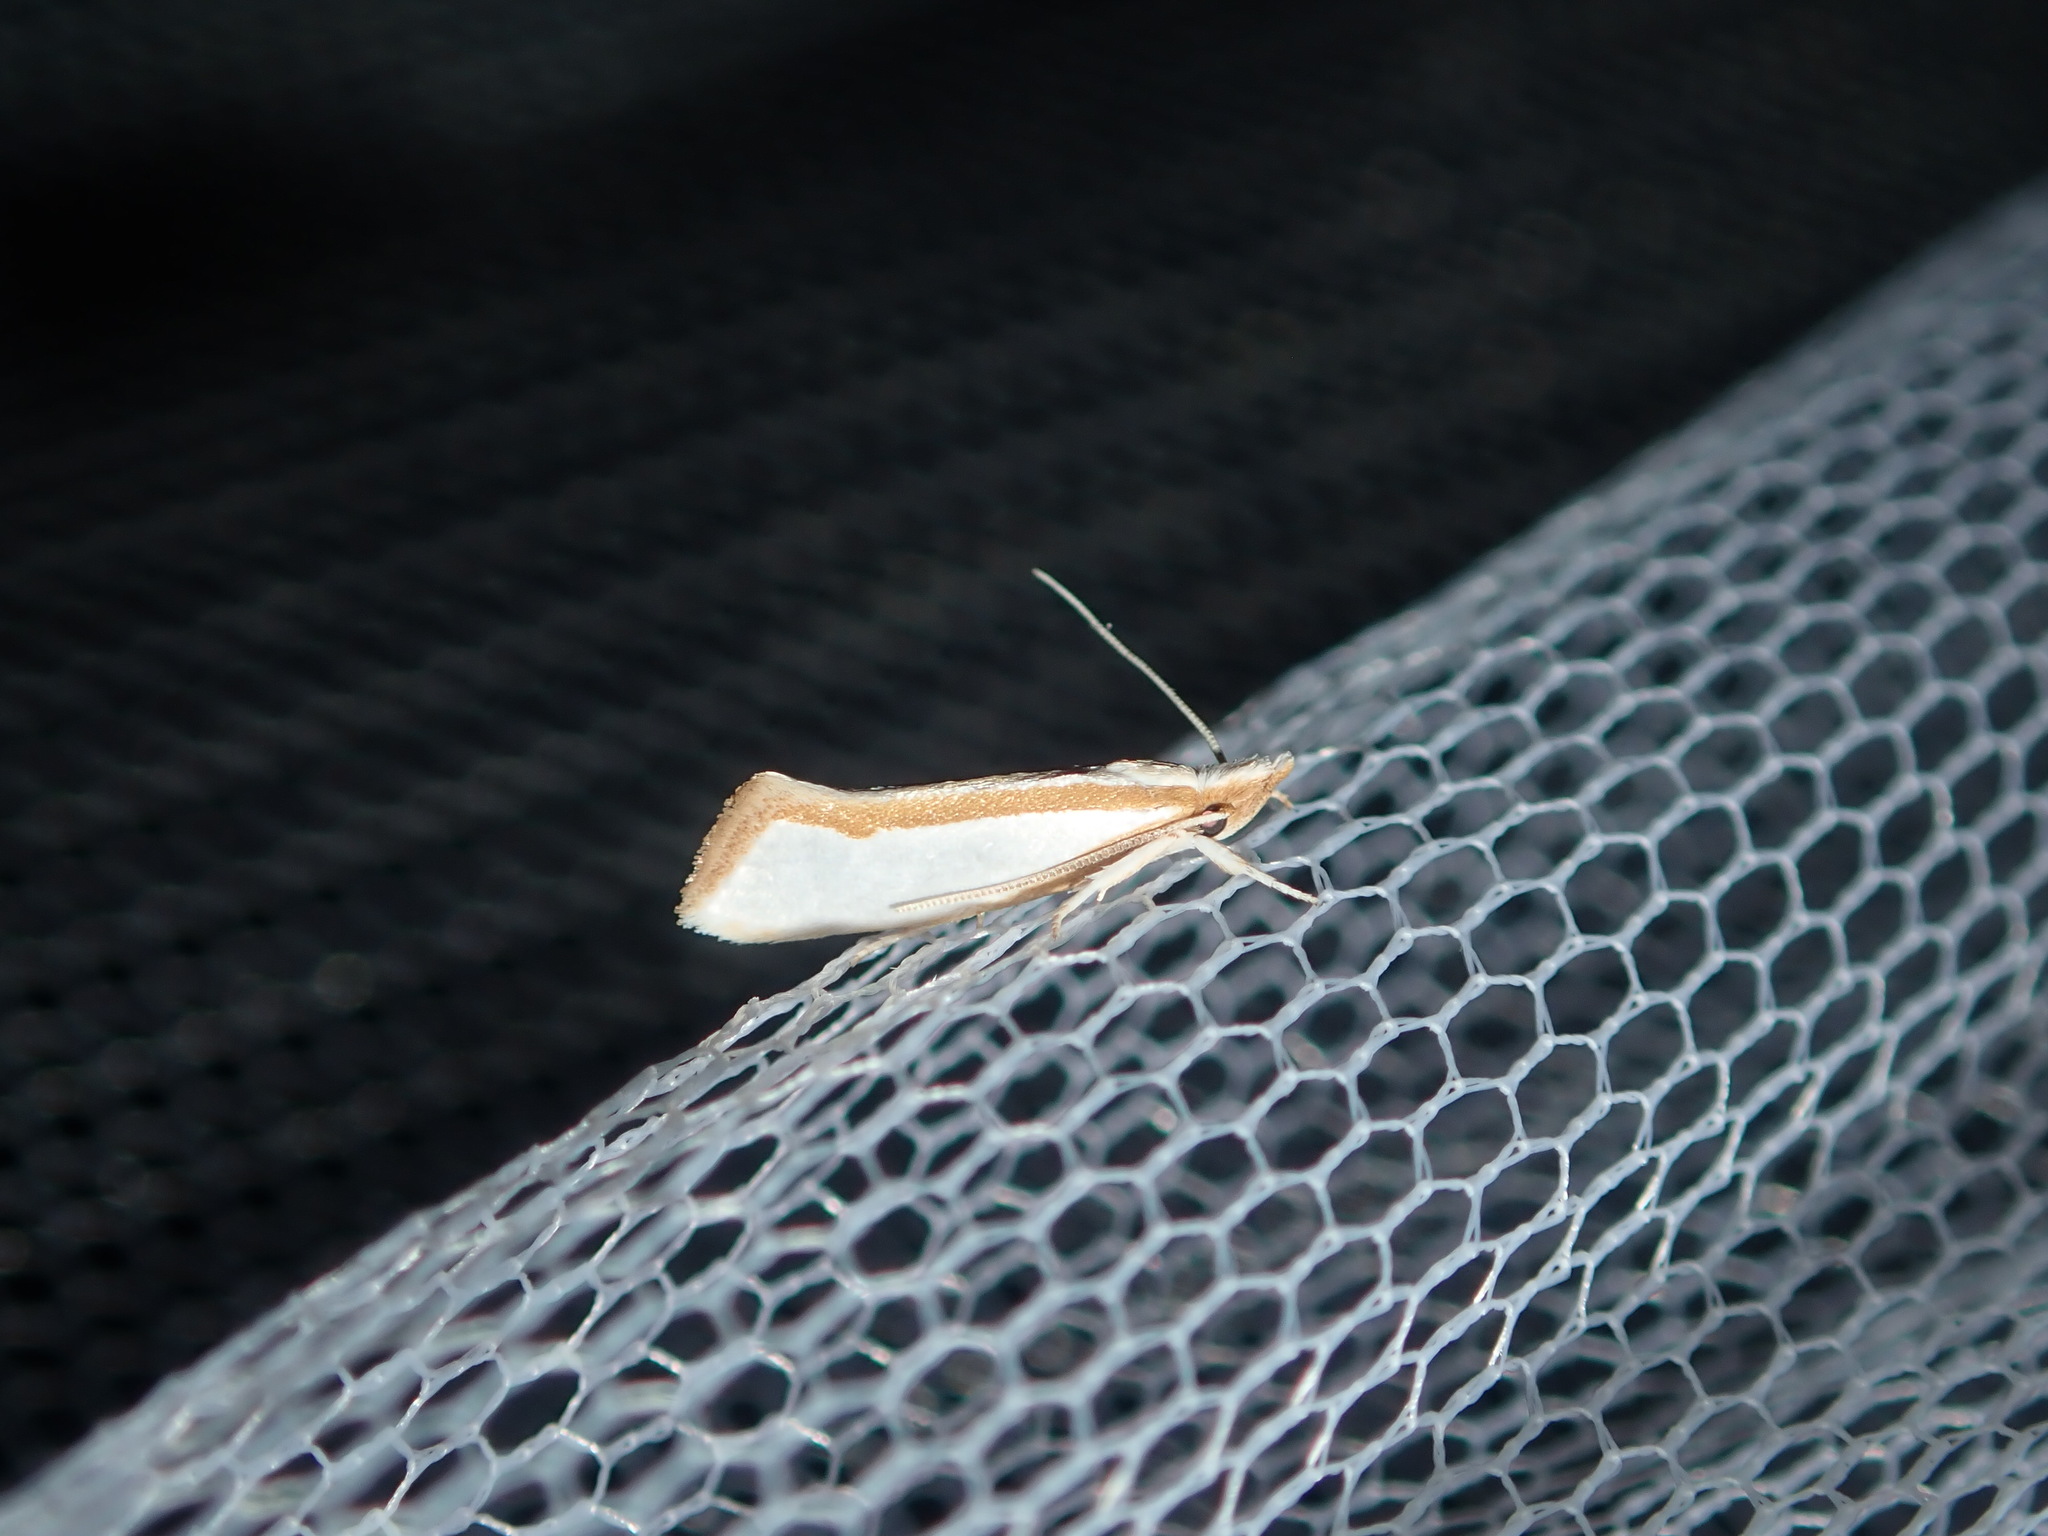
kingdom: Animalia
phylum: Arthropoda
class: Insecta
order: Lepidoptera
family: Depressariidae
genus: Thudaca
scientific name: Thudaca circumdatella
